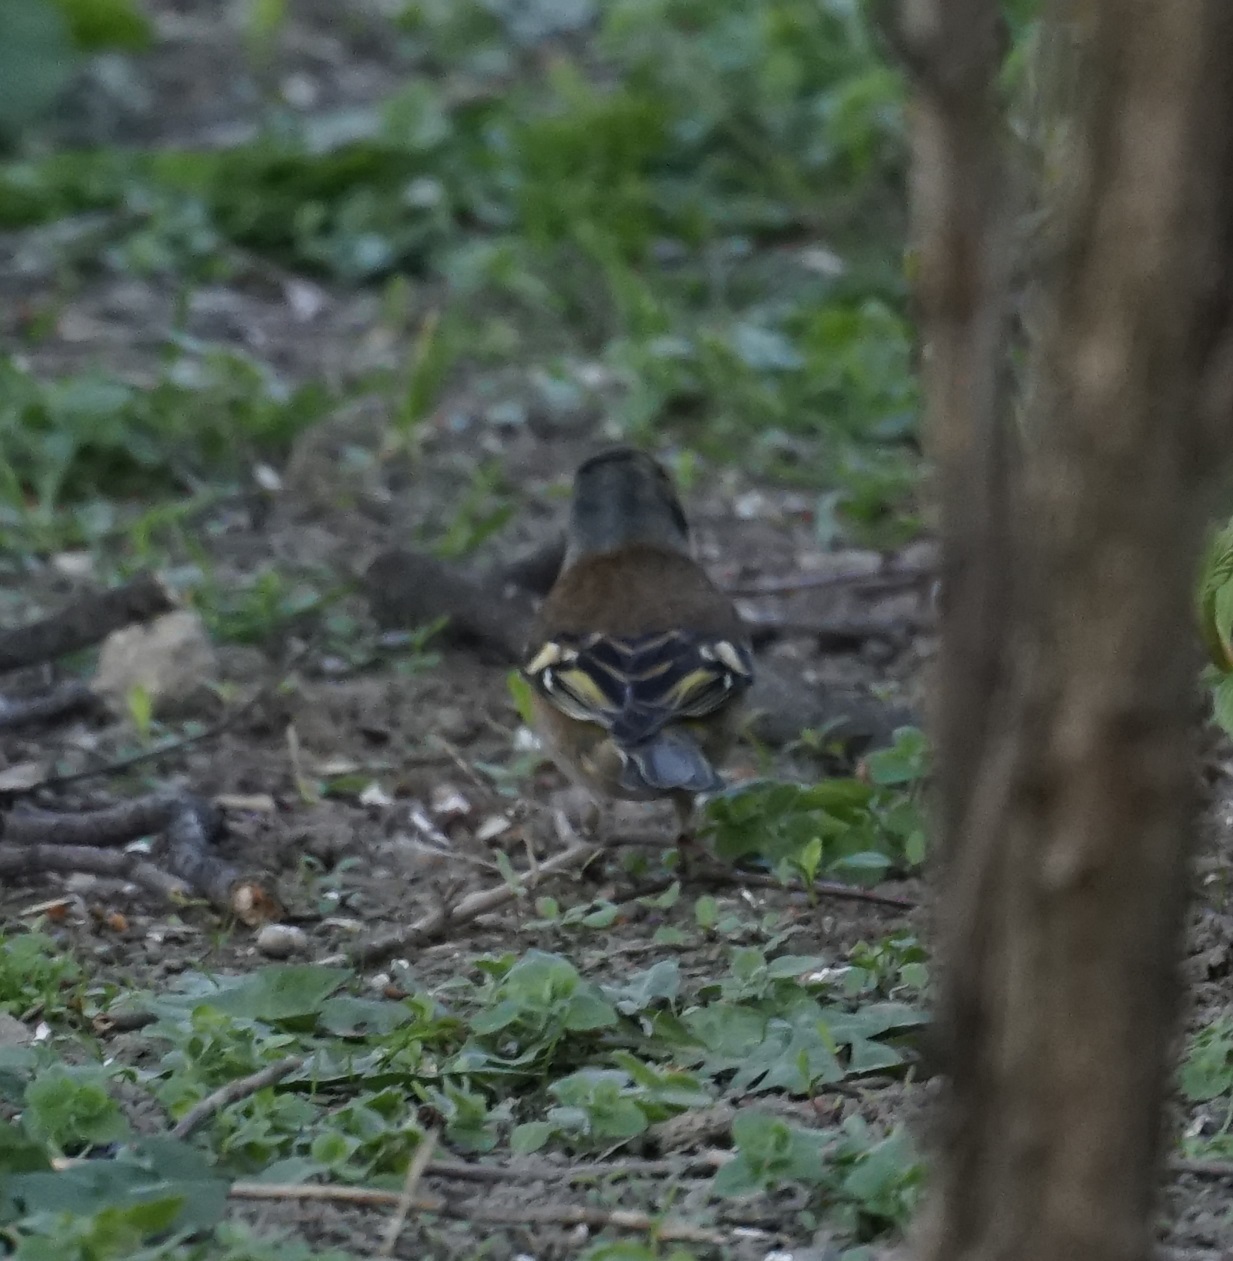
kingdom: Animalia
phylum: Chordata
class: Aves
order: Passeriformes
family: Fringillidae
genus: Fringilla
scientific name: Fringilla coelebs
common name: Common chaffinch
